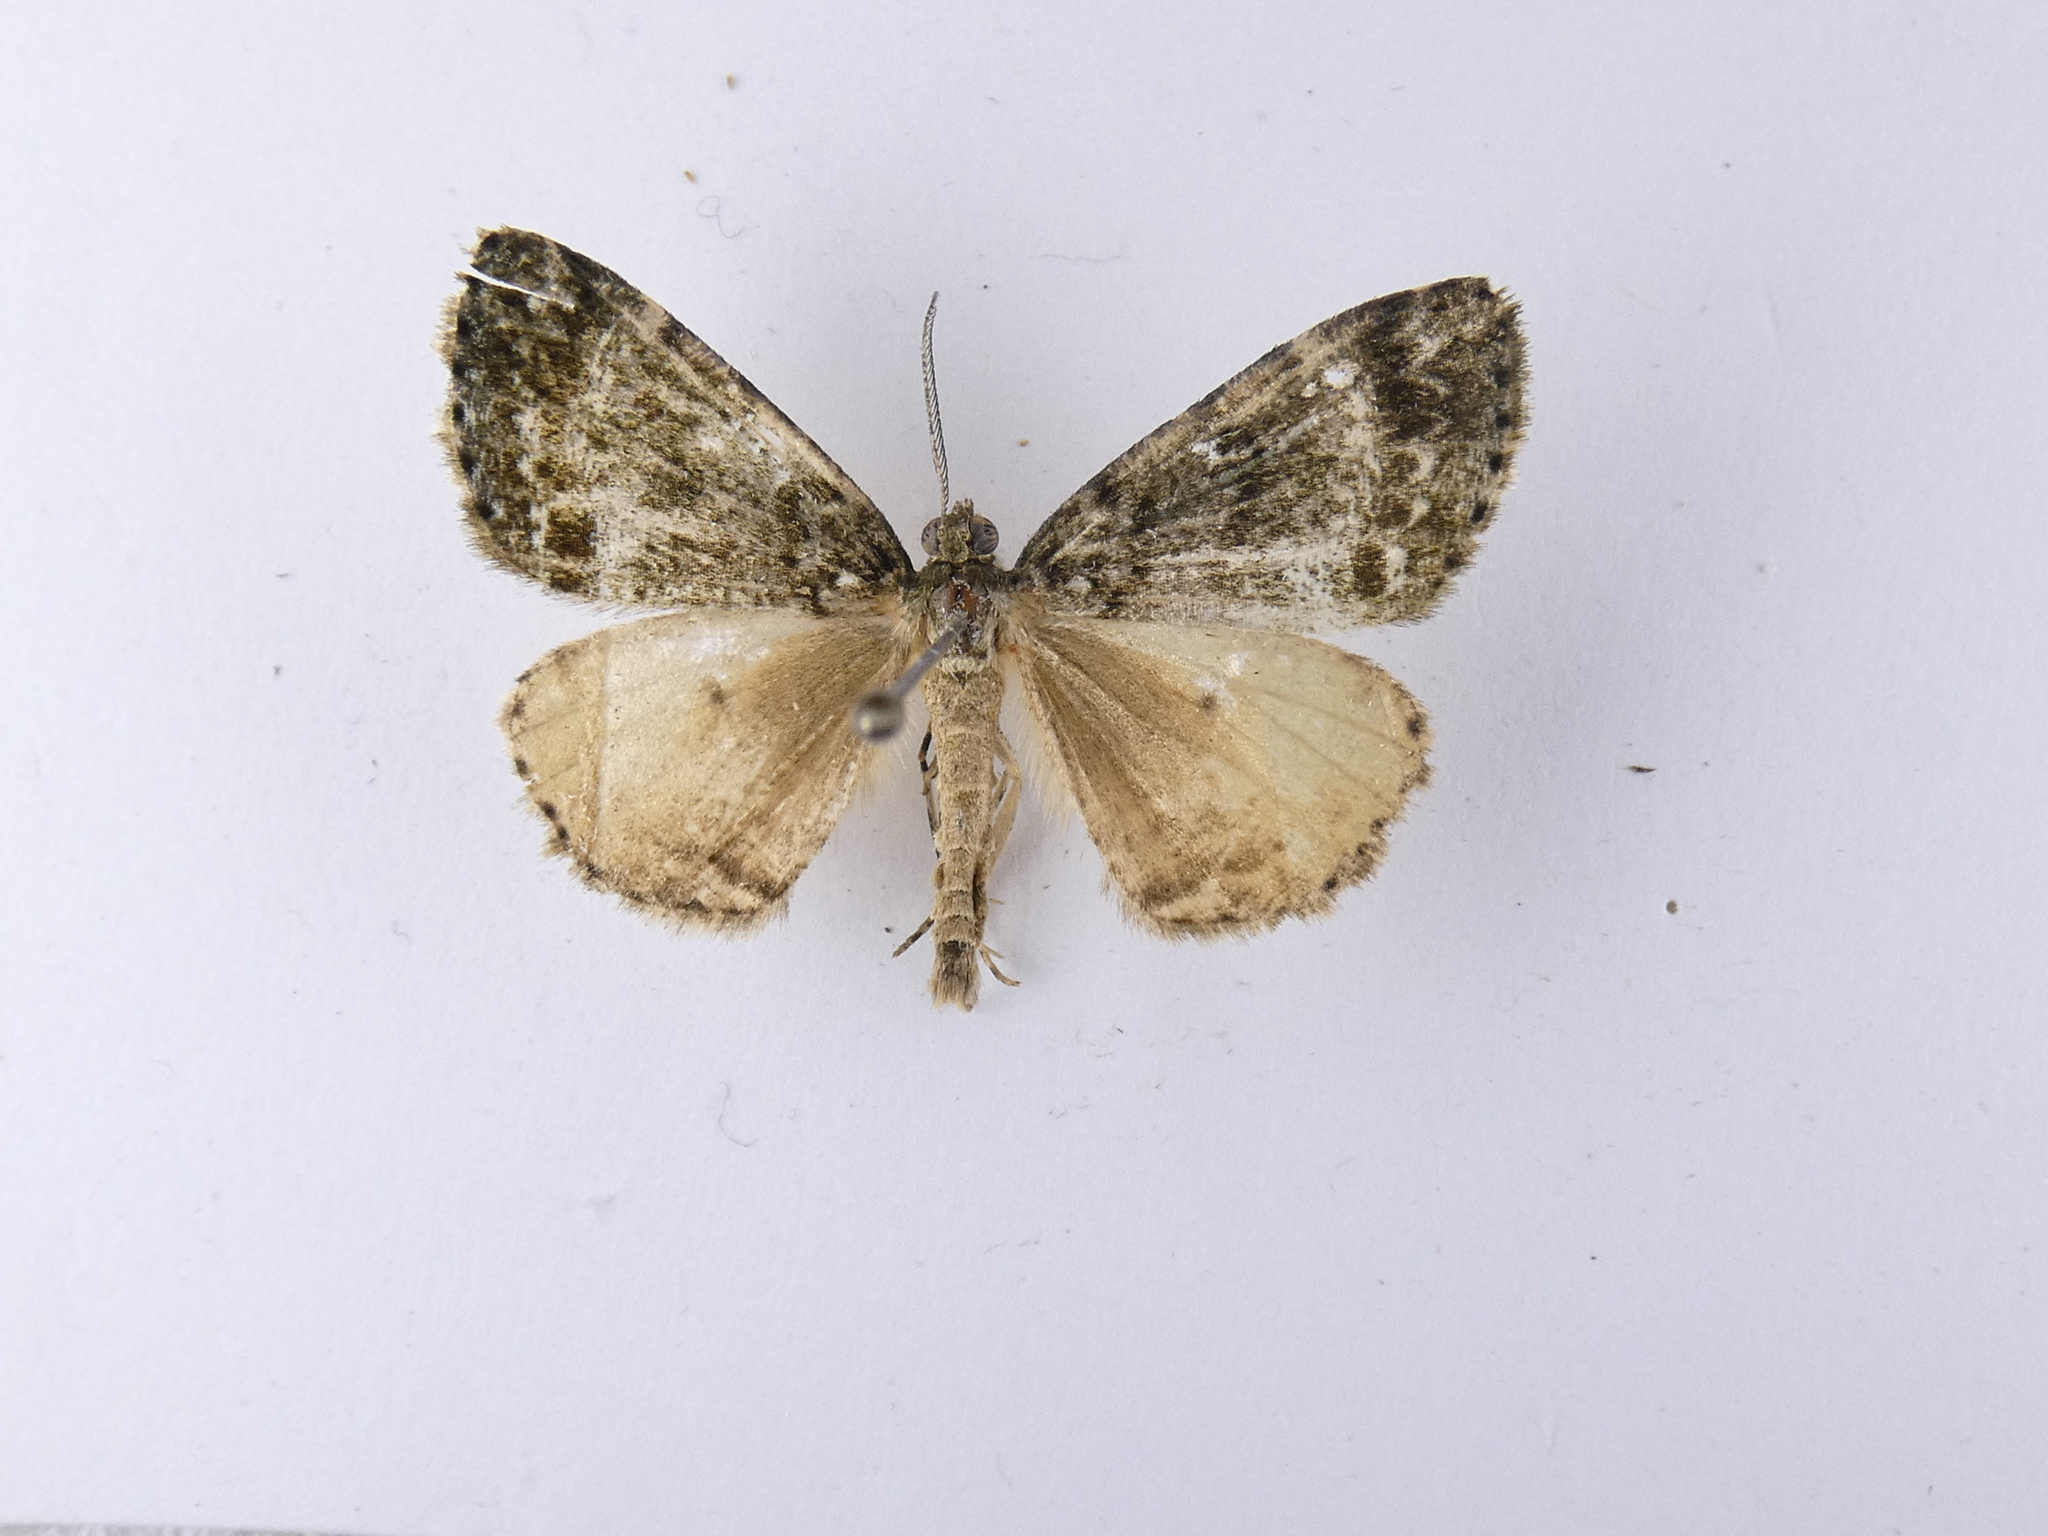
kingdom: Animalia
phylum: Arthropoda
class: Insecta
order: Lepidoptera
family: Geometridae
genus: Pseudocoremia
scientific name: Pseudocoremia indistincta
